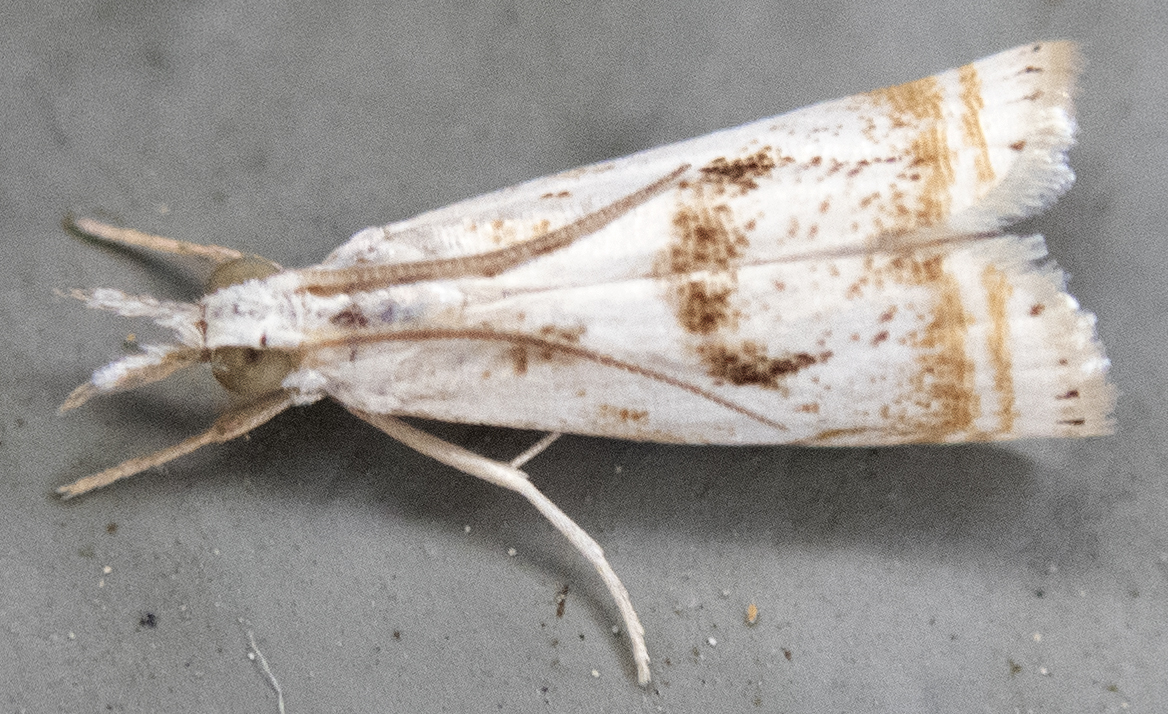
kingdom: Animalia
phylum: Arthropoda
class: Insecta
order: Lepidoptera
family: Crambidae
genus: Microcrambus
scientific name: Microcrambus elegans
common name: Elegant grass-veneer
